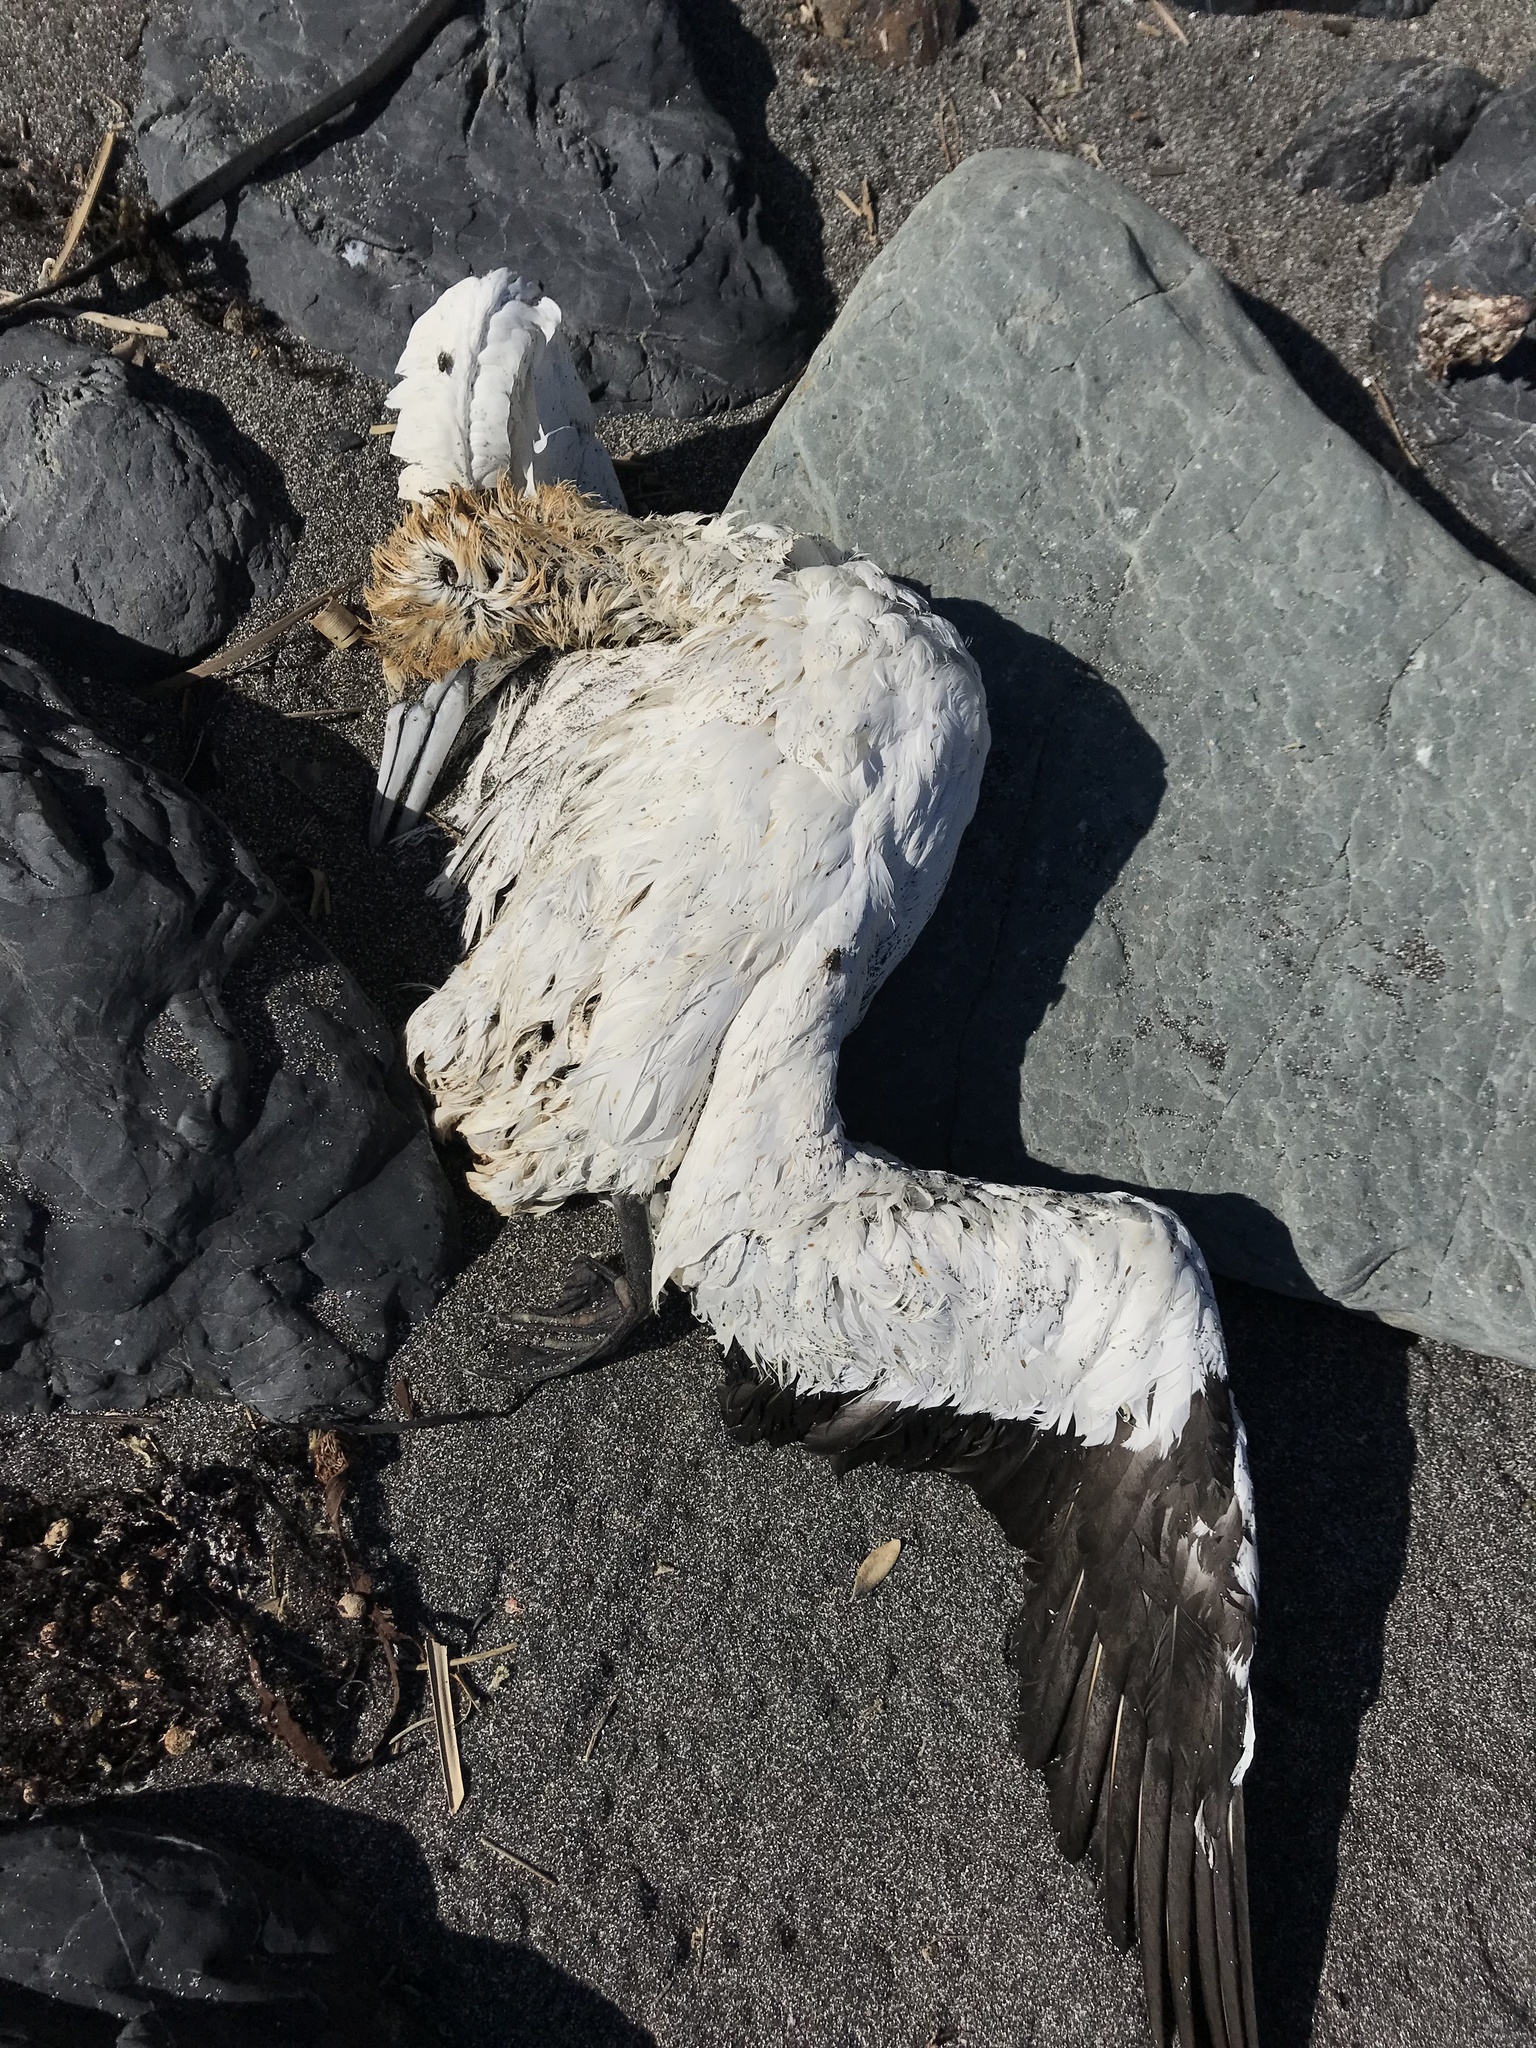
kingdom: Animalia
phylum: Chordata
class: Aves
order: Suliformes
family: Sulidae
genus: Morus
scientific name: Morus serrator
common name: Australasian gannet
